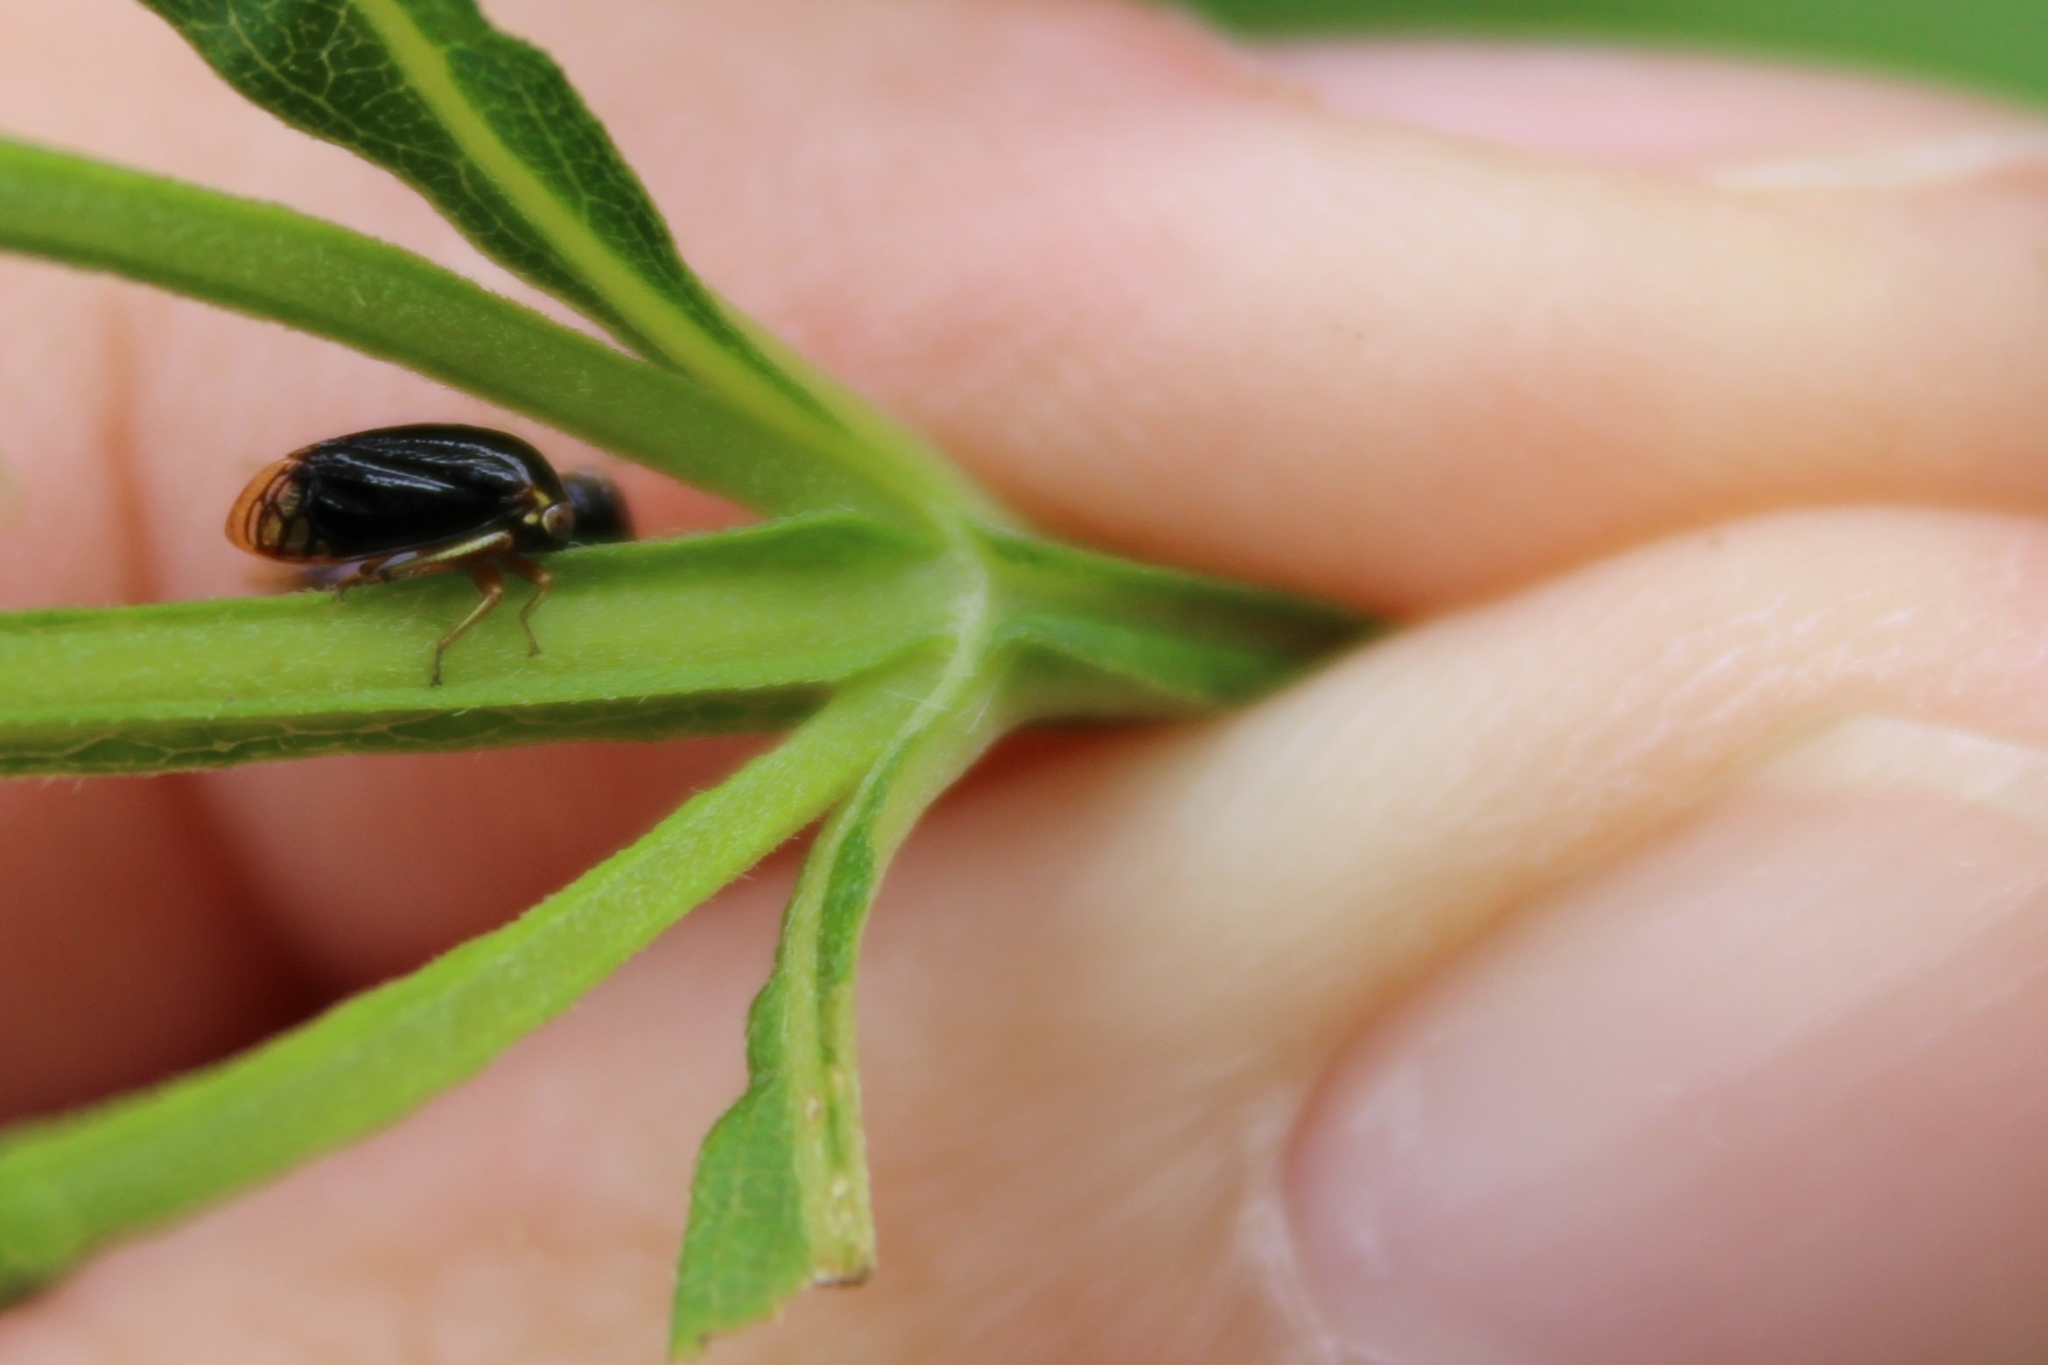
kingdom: Animalia
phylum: Arthropoda
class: Insecta
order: Hemiptera
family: Membracidae
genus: Acutalis
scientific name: Acutalis tartarea
